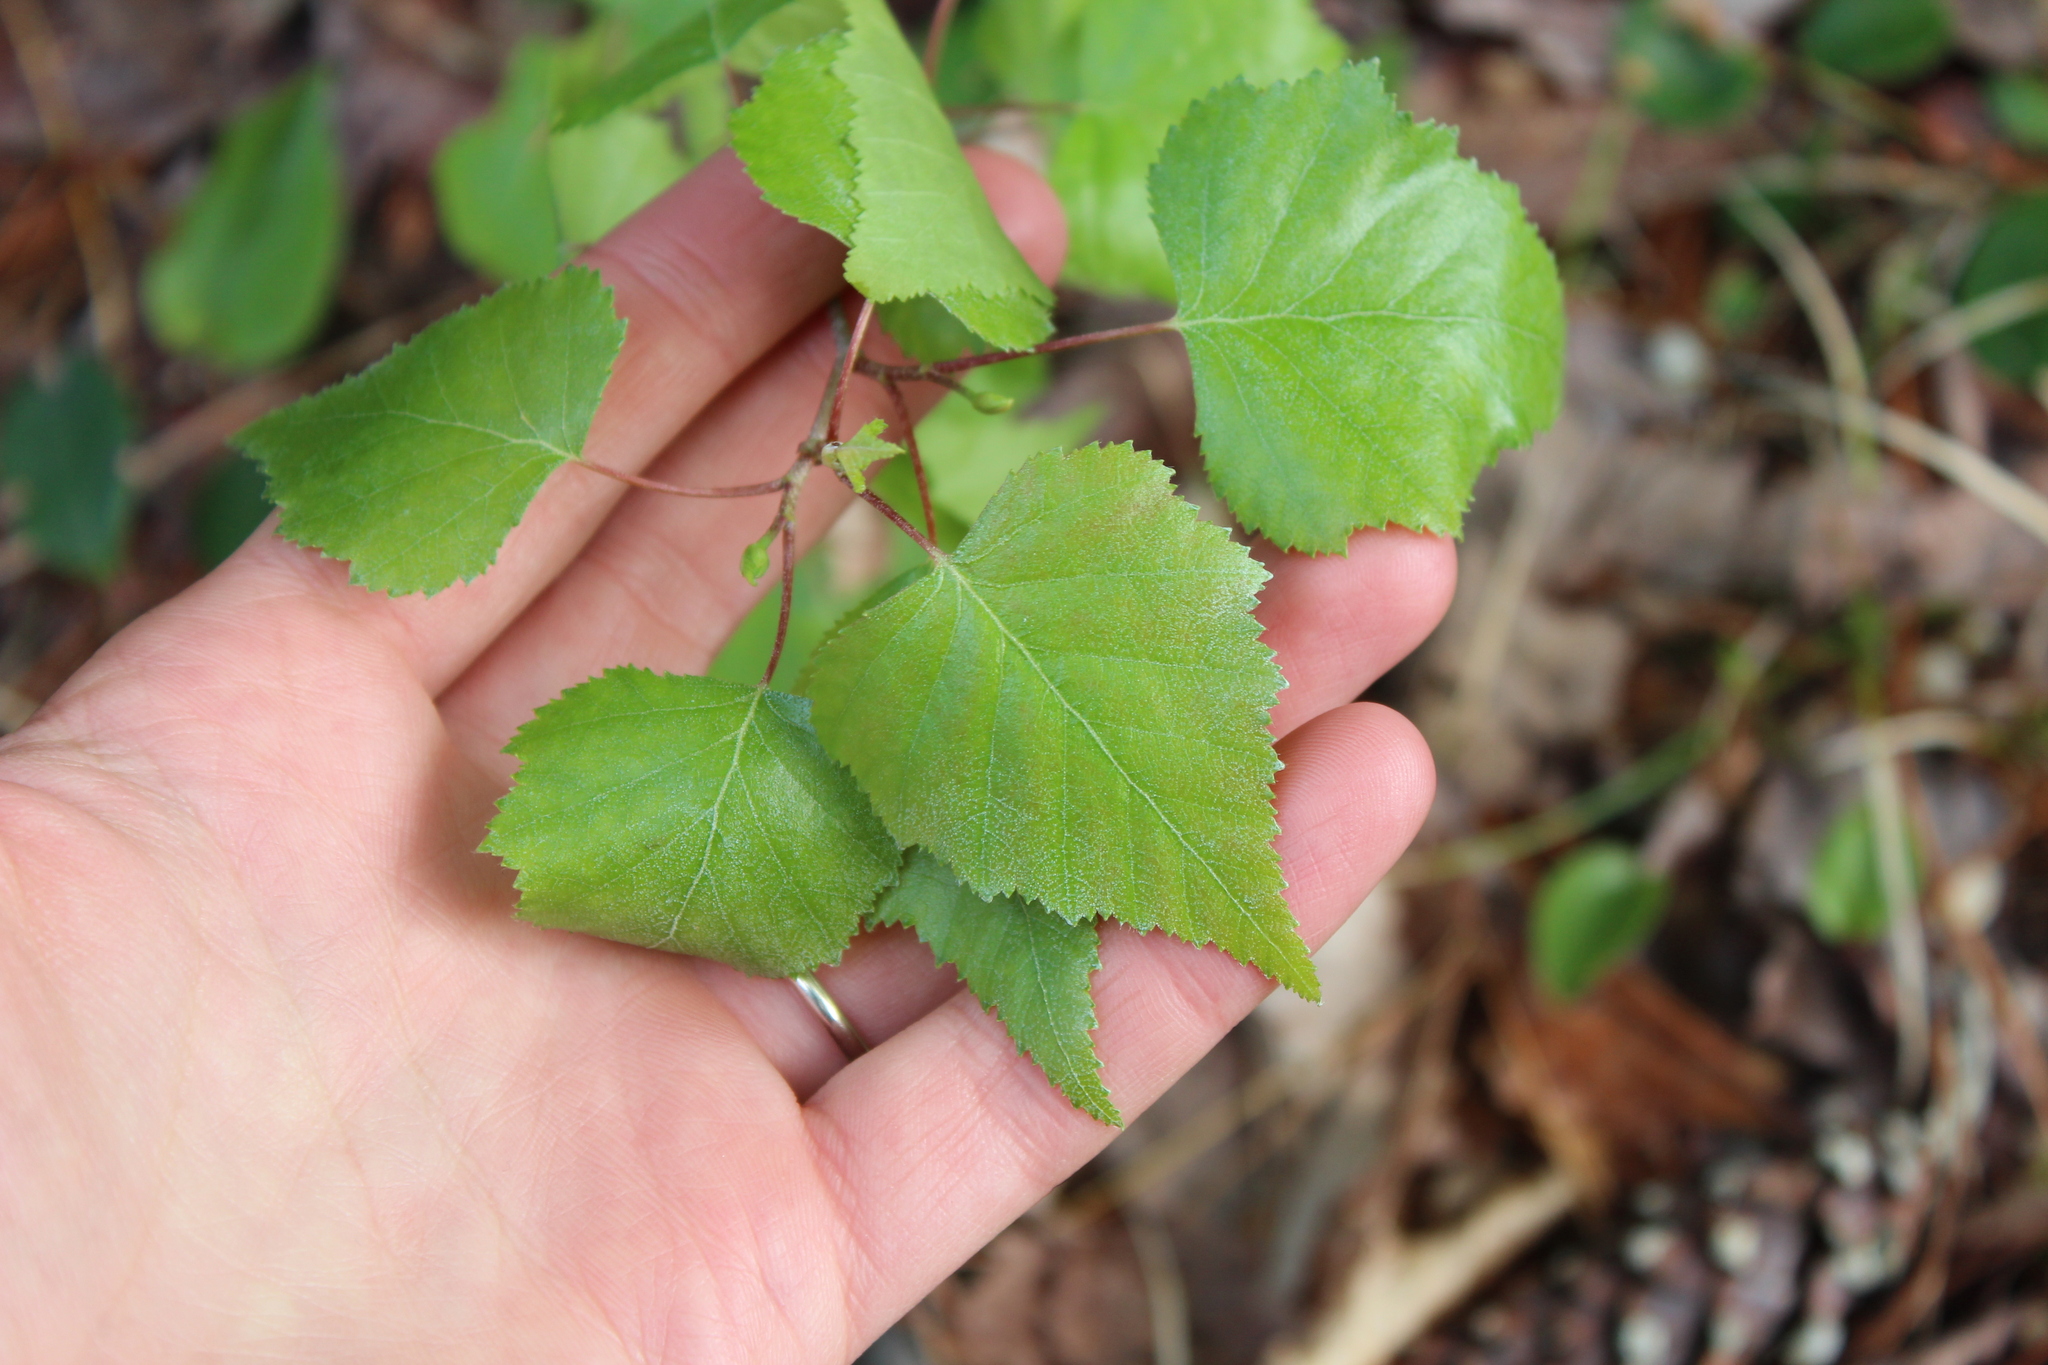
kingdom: Plantae
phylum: Tracheophyta
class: Magnoliopsida
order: Fagales
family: Betulaceae
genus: Betula
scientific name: Betula populifolia
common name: Fire birch
